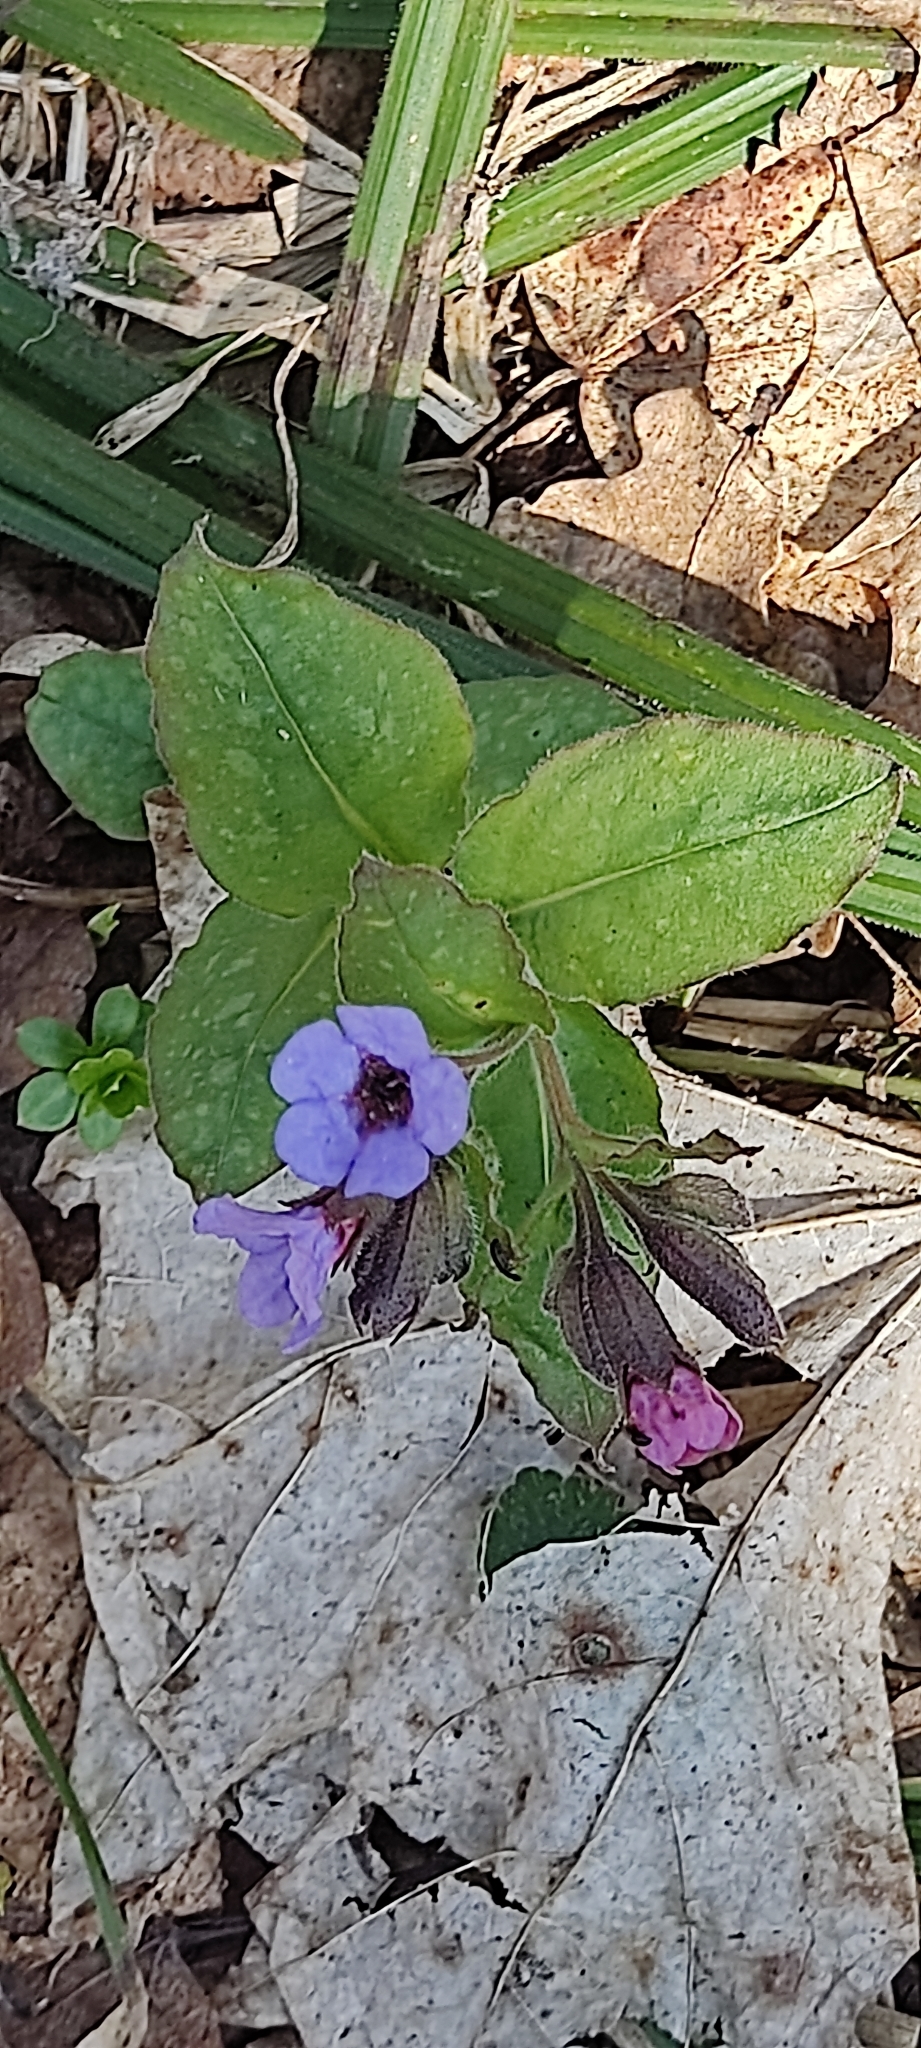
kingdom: Plantae
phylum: Tracheophyta
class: Magnoliopsida
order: Boraginales
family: Boraginaceae
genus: Pulmonaria
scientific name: Pulmonaria obscura
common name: Suffolk lungwort
